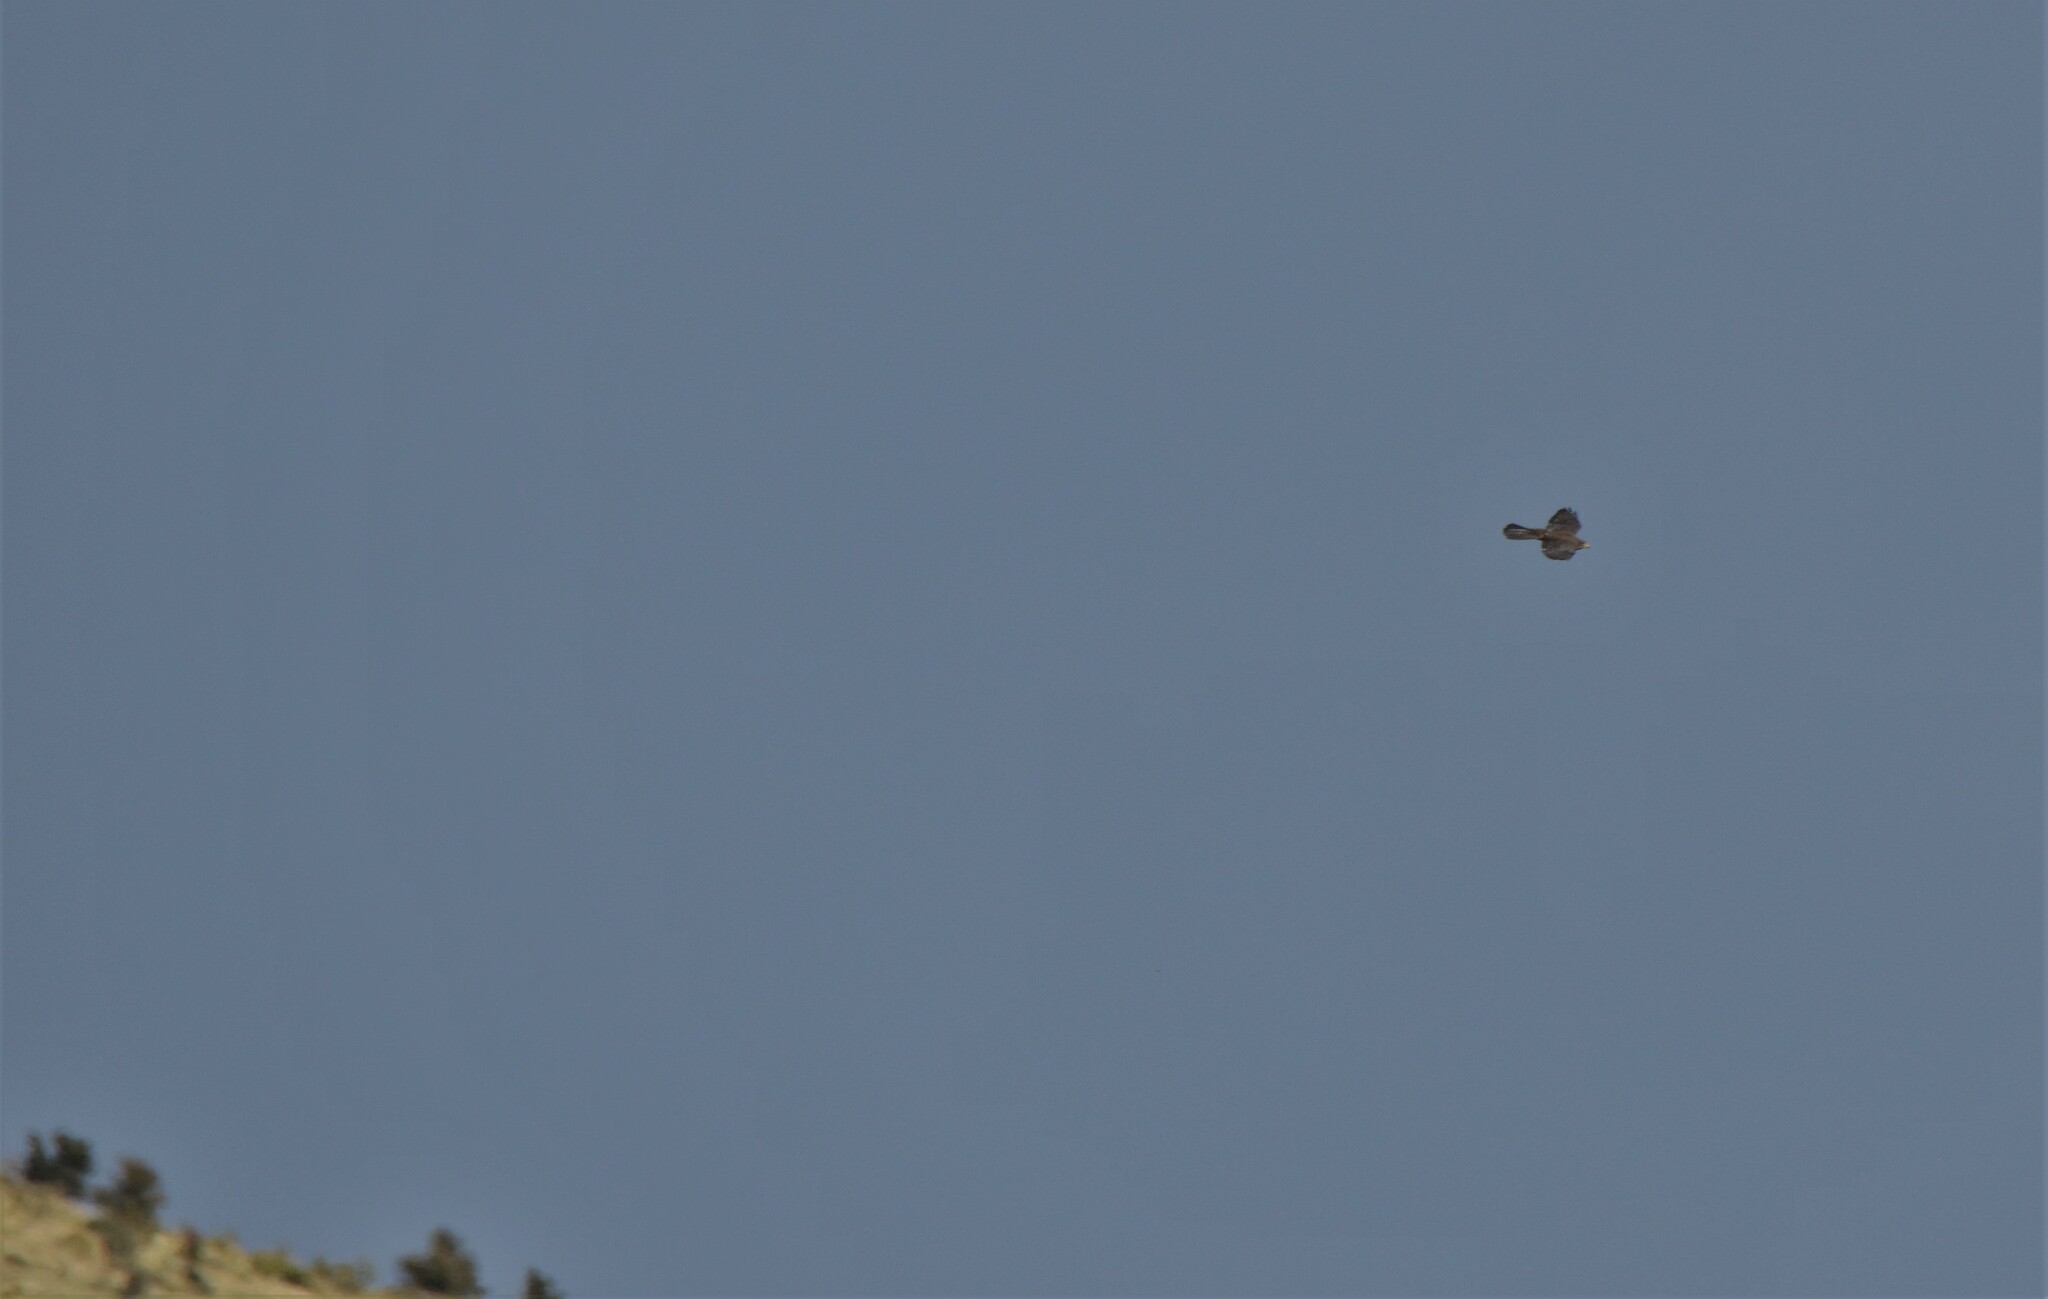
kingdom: Animalia
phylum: Chordata
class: Aves
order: Falconiformes
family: Falconidae
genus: Falco
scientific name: Falco novaeseelandiae
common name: New zealand falcon
